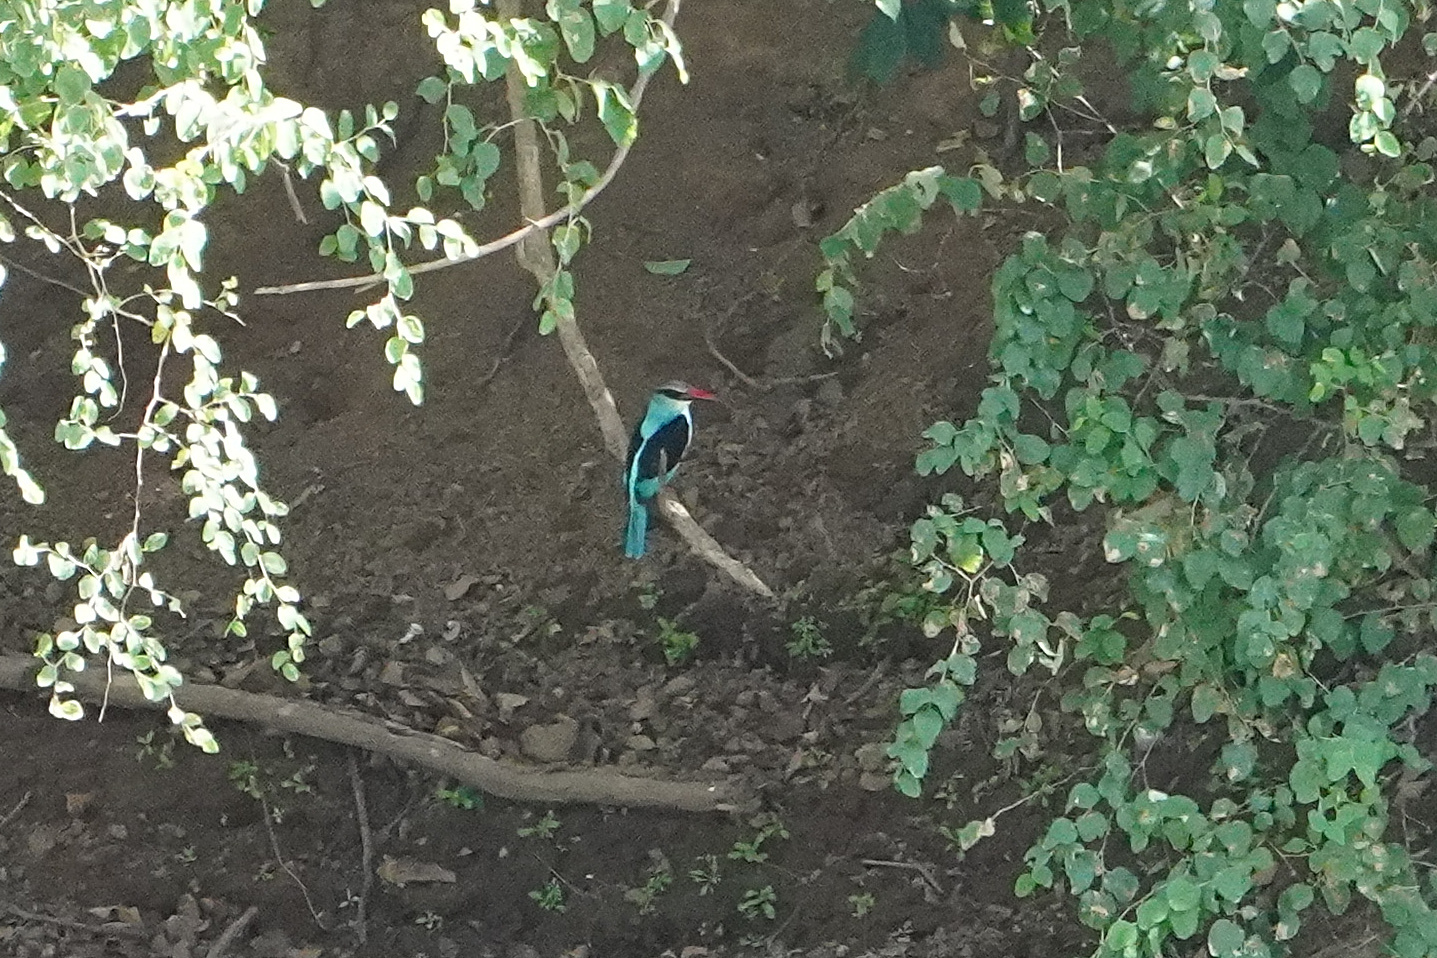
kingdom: Animalia
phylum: Chordata
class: Aves
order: Coraciiformes
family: Alcedinidae
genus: Halcyon
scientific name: Halcyon malimbica
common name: Blue-breasted kingfisher
